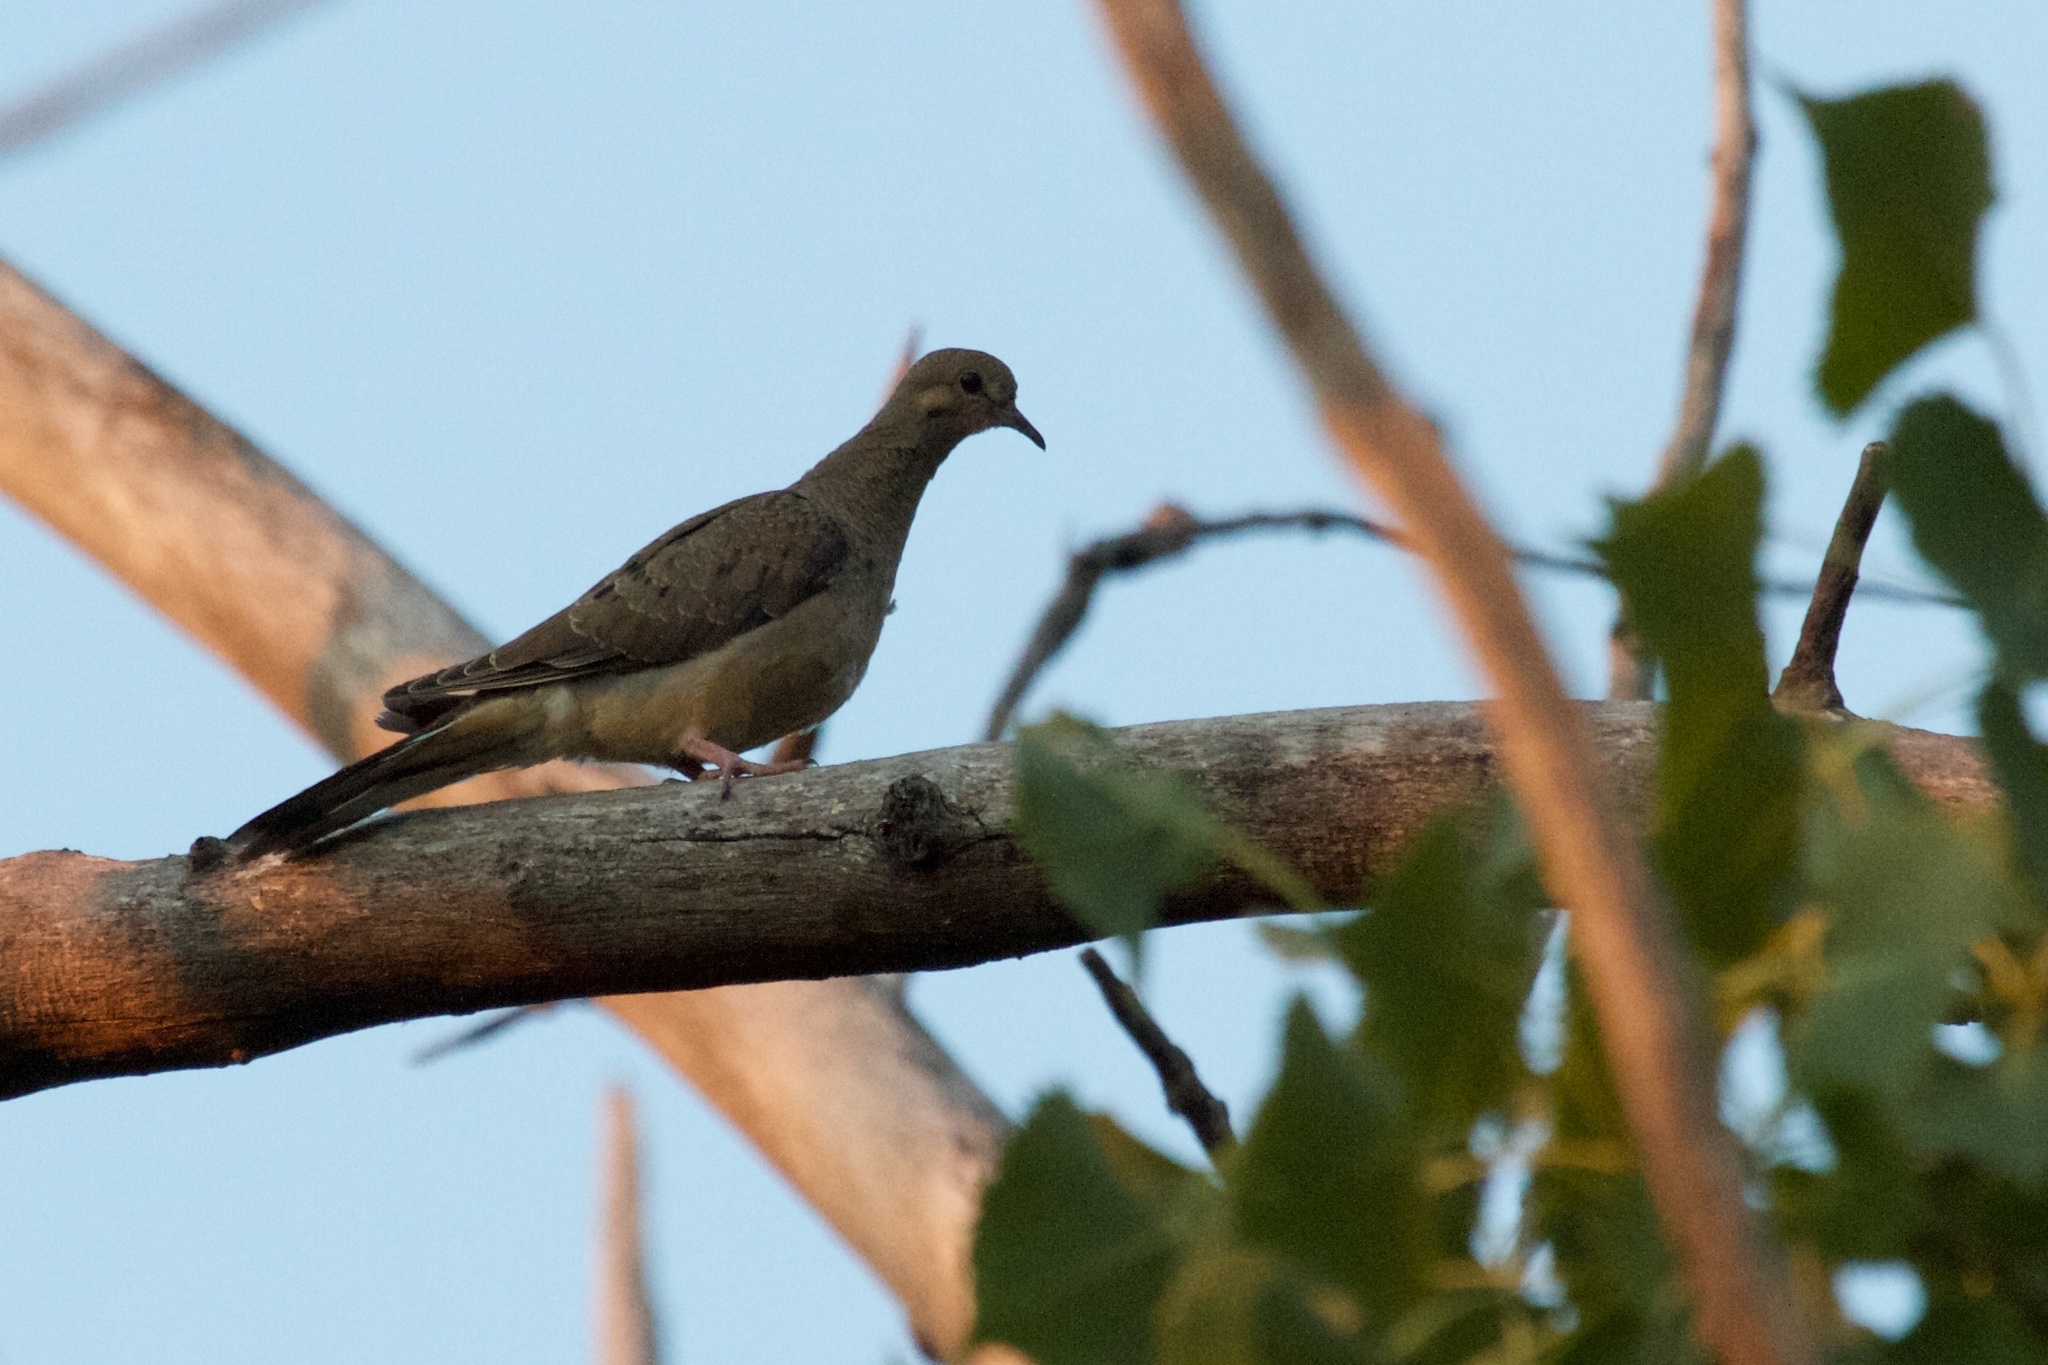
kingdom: Animalia
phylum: Chordata
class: Aves
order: Columbiformes
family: Columbidae
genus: Zenaida
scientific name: Zenaida macroura
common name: Mourning dove
